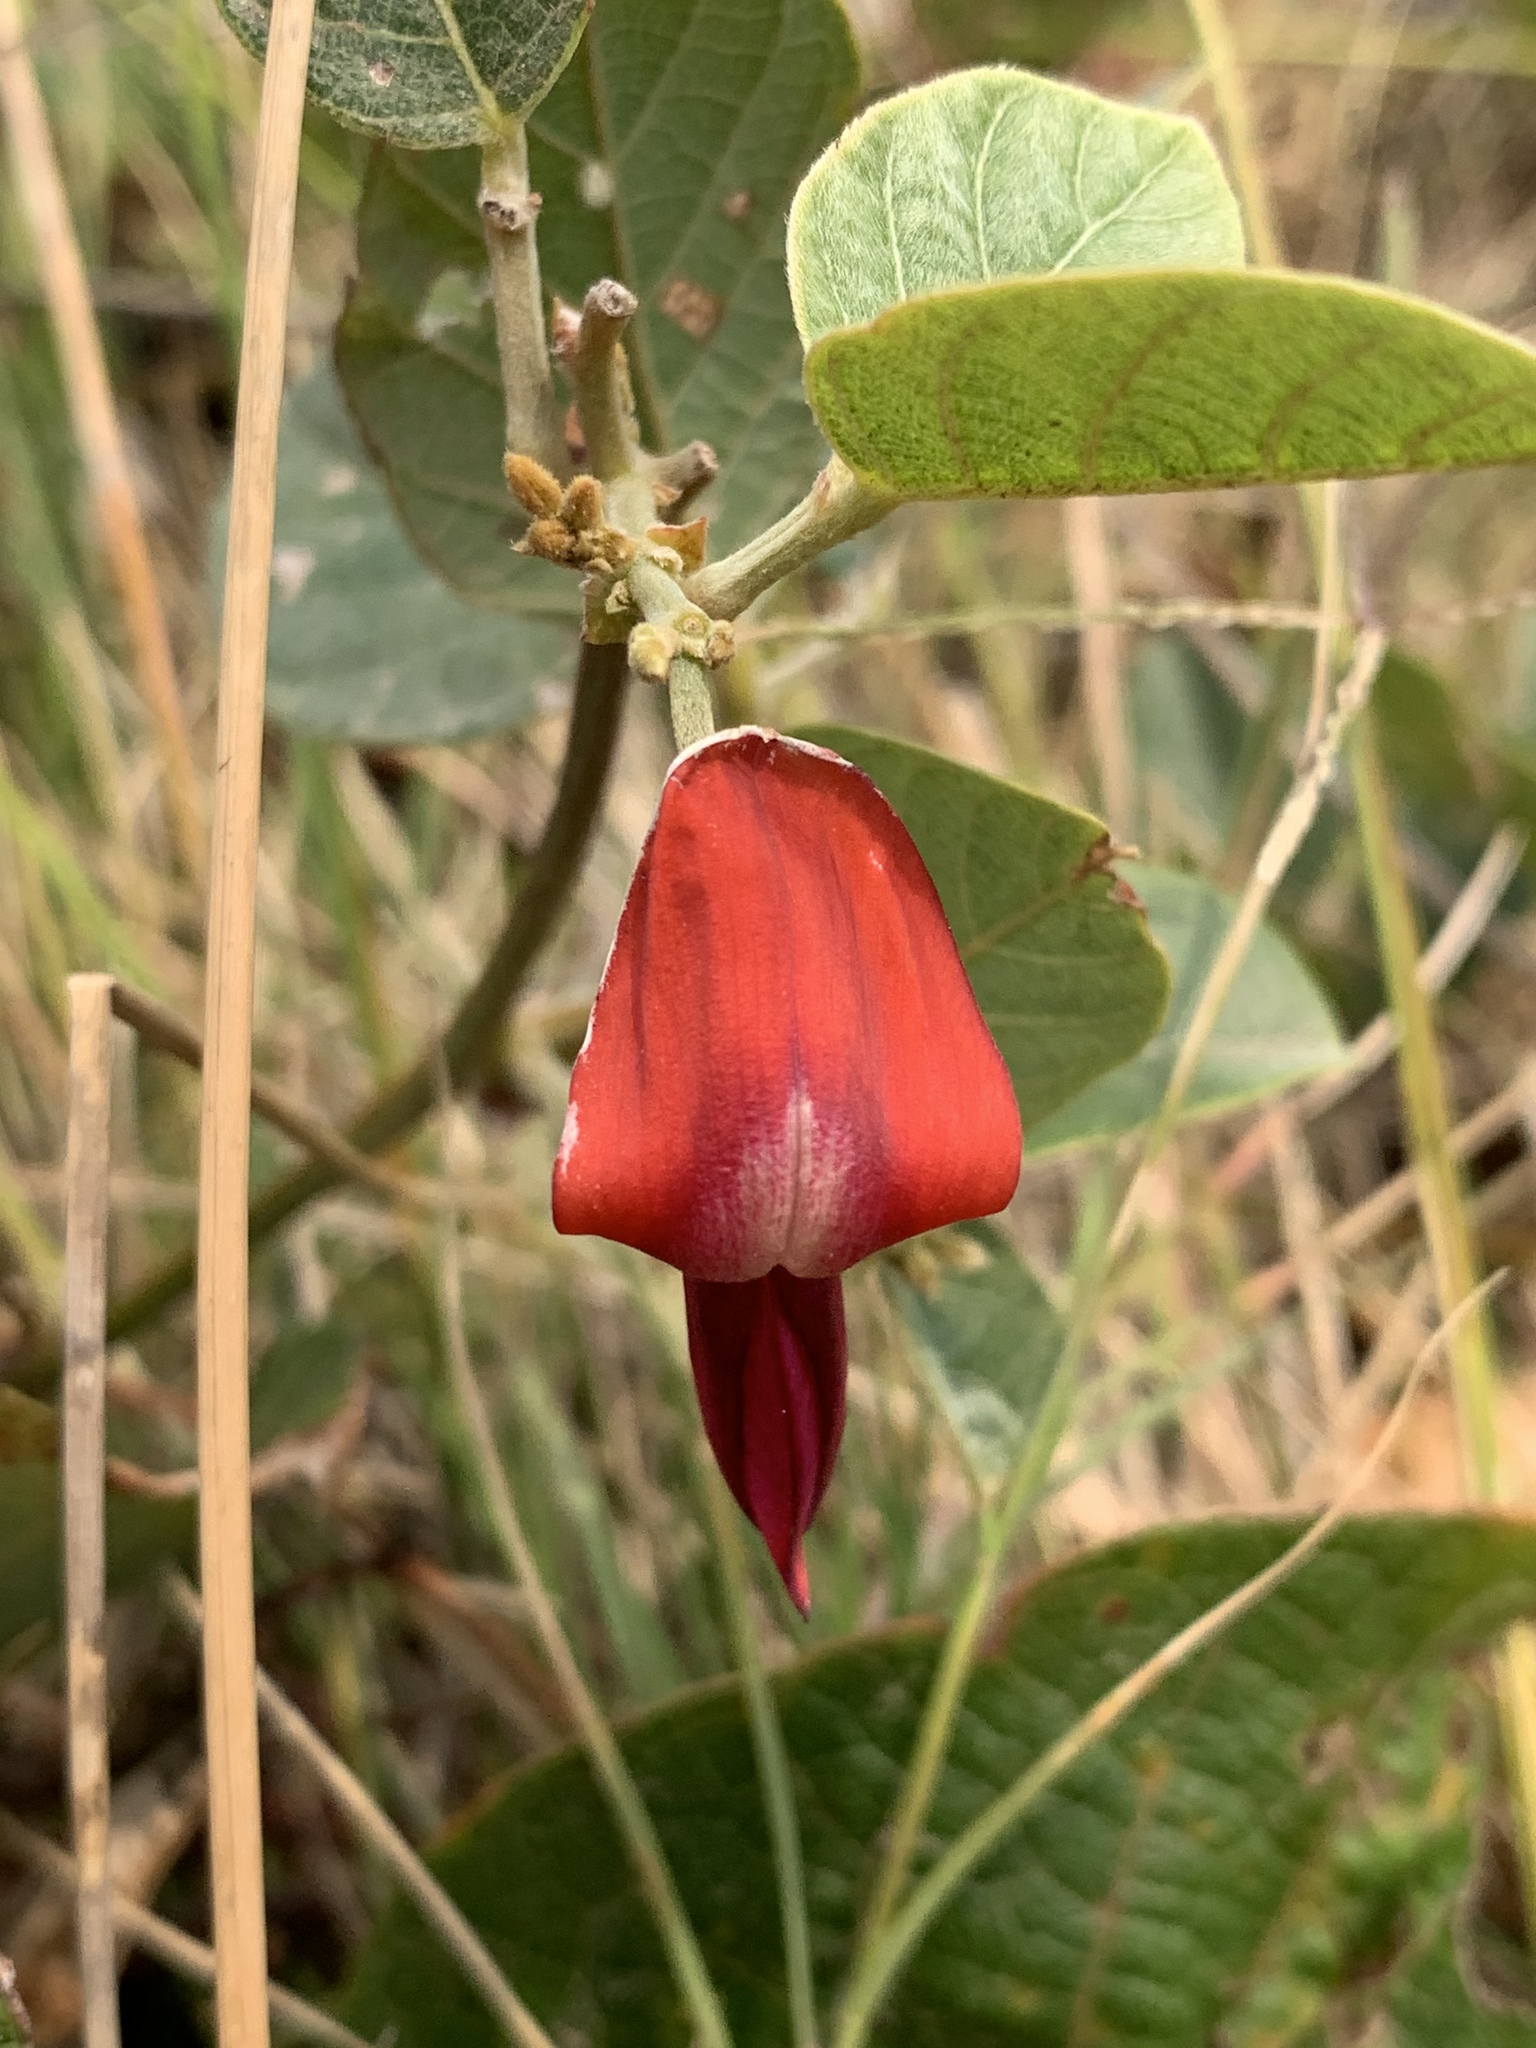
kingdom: Plantae
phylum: Tracheophyta
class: Magnoliopsida
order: Fabales
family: Fabaceae
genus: Kennedia
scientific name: Kennedia rubicunda
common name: Red kennedy-pea
